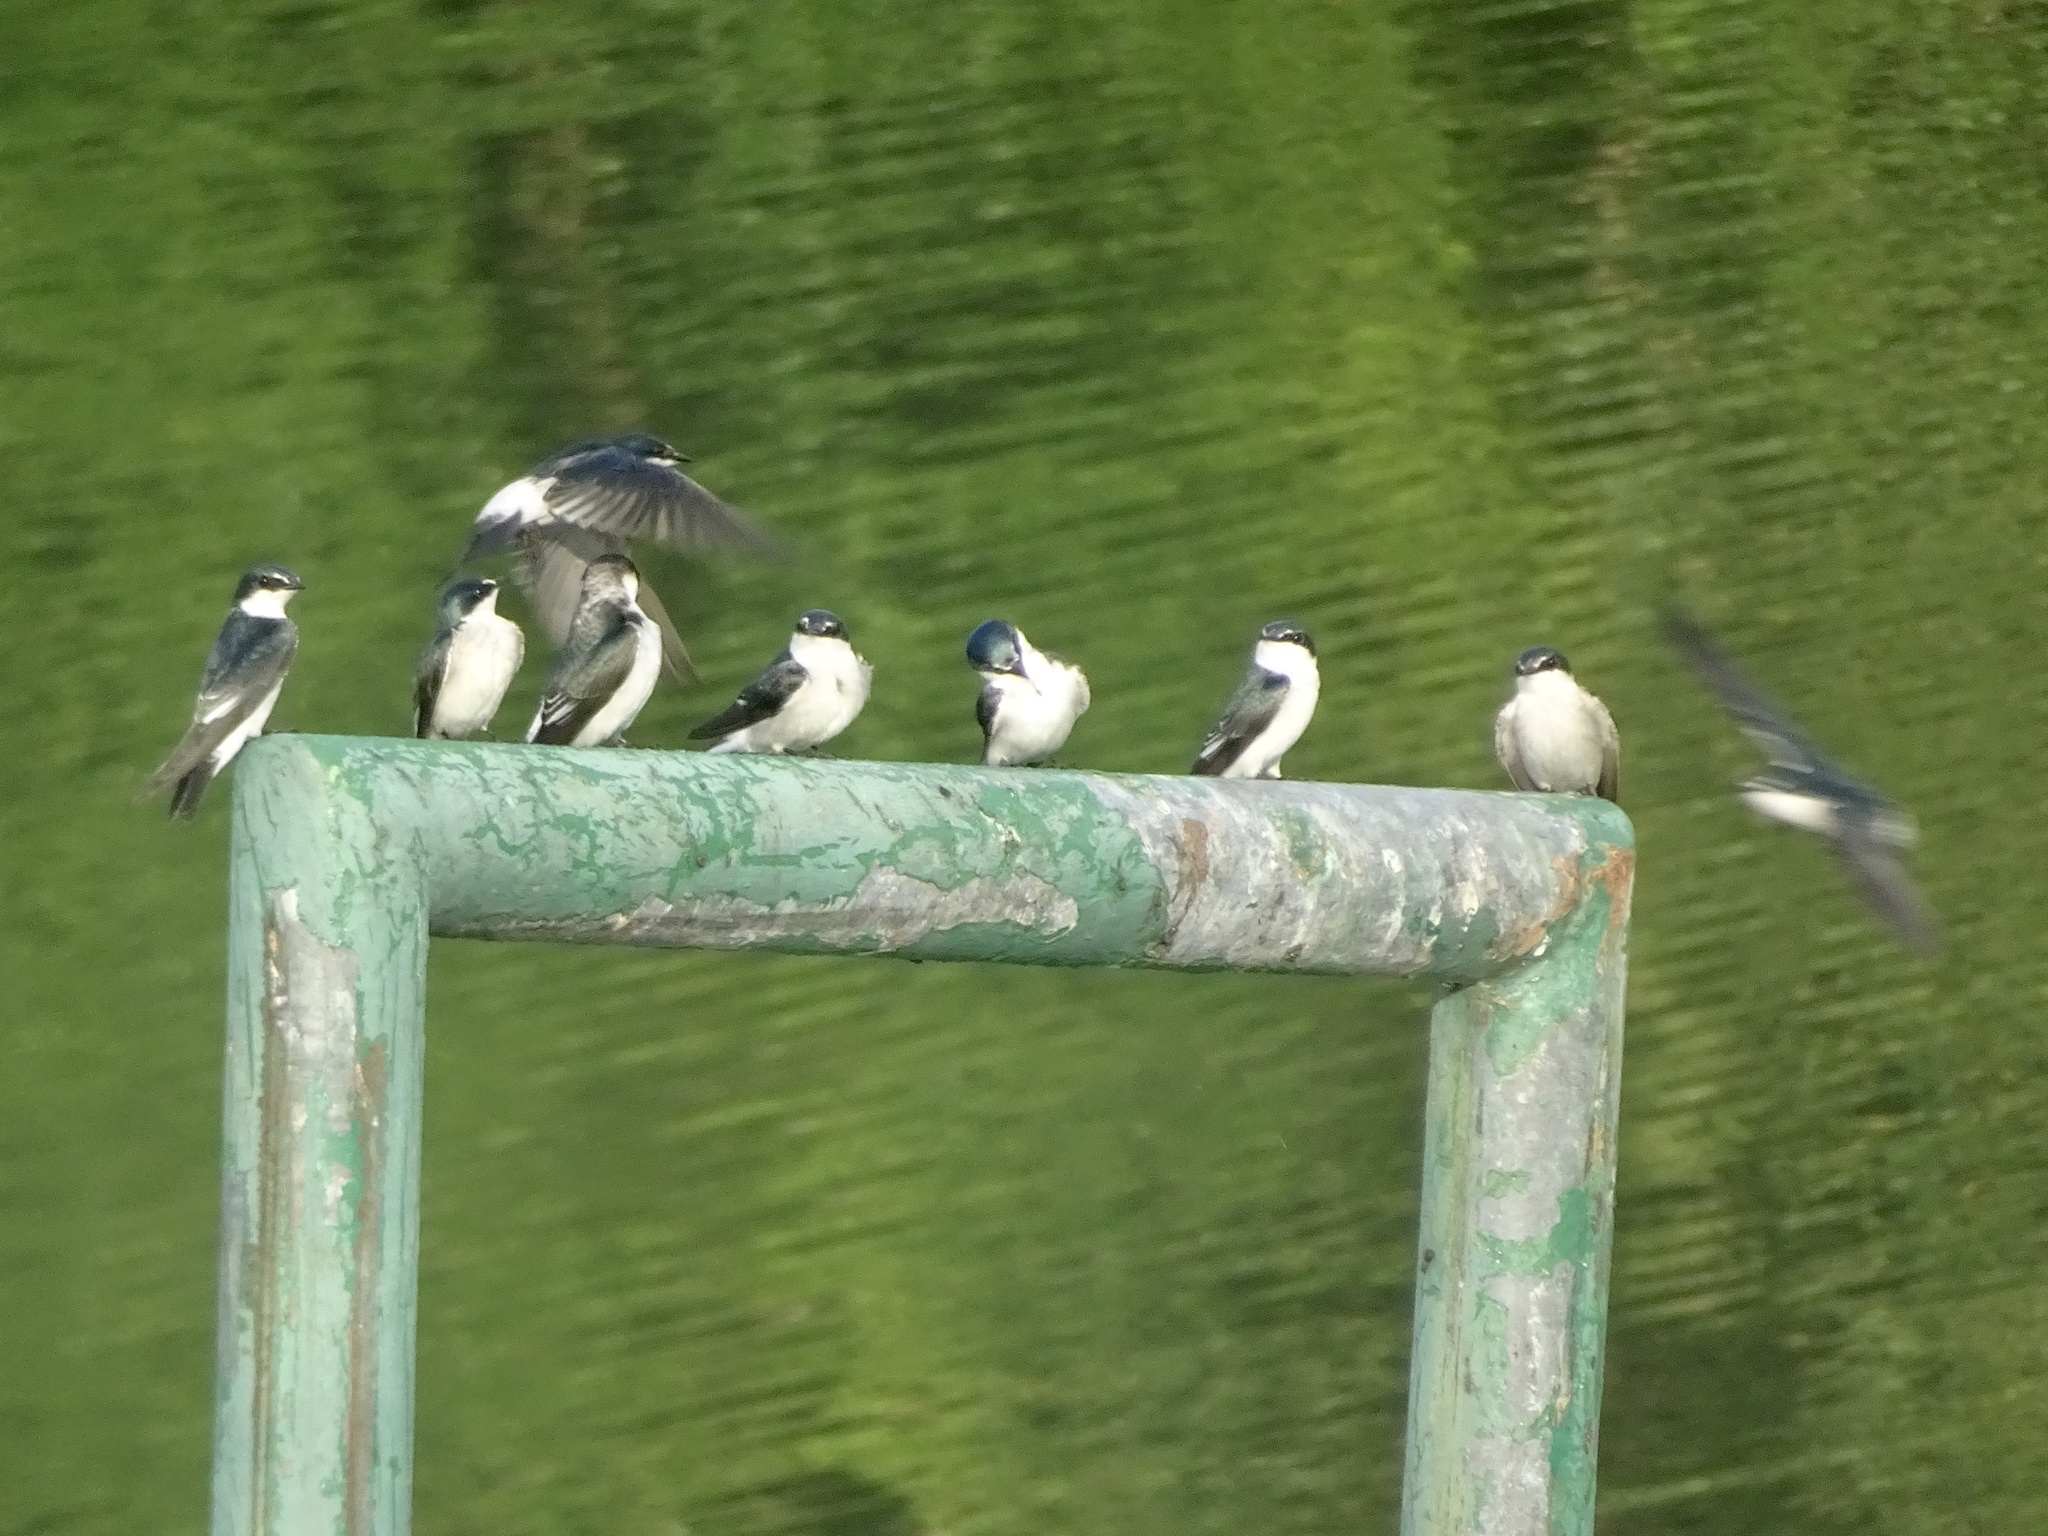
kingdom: Animalia
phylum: Chordata
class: Aves
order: Passeriformes
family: Hirundinidae
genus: Tachycineta
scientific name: Tachycineta albilinea
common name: Mangrove swallow
